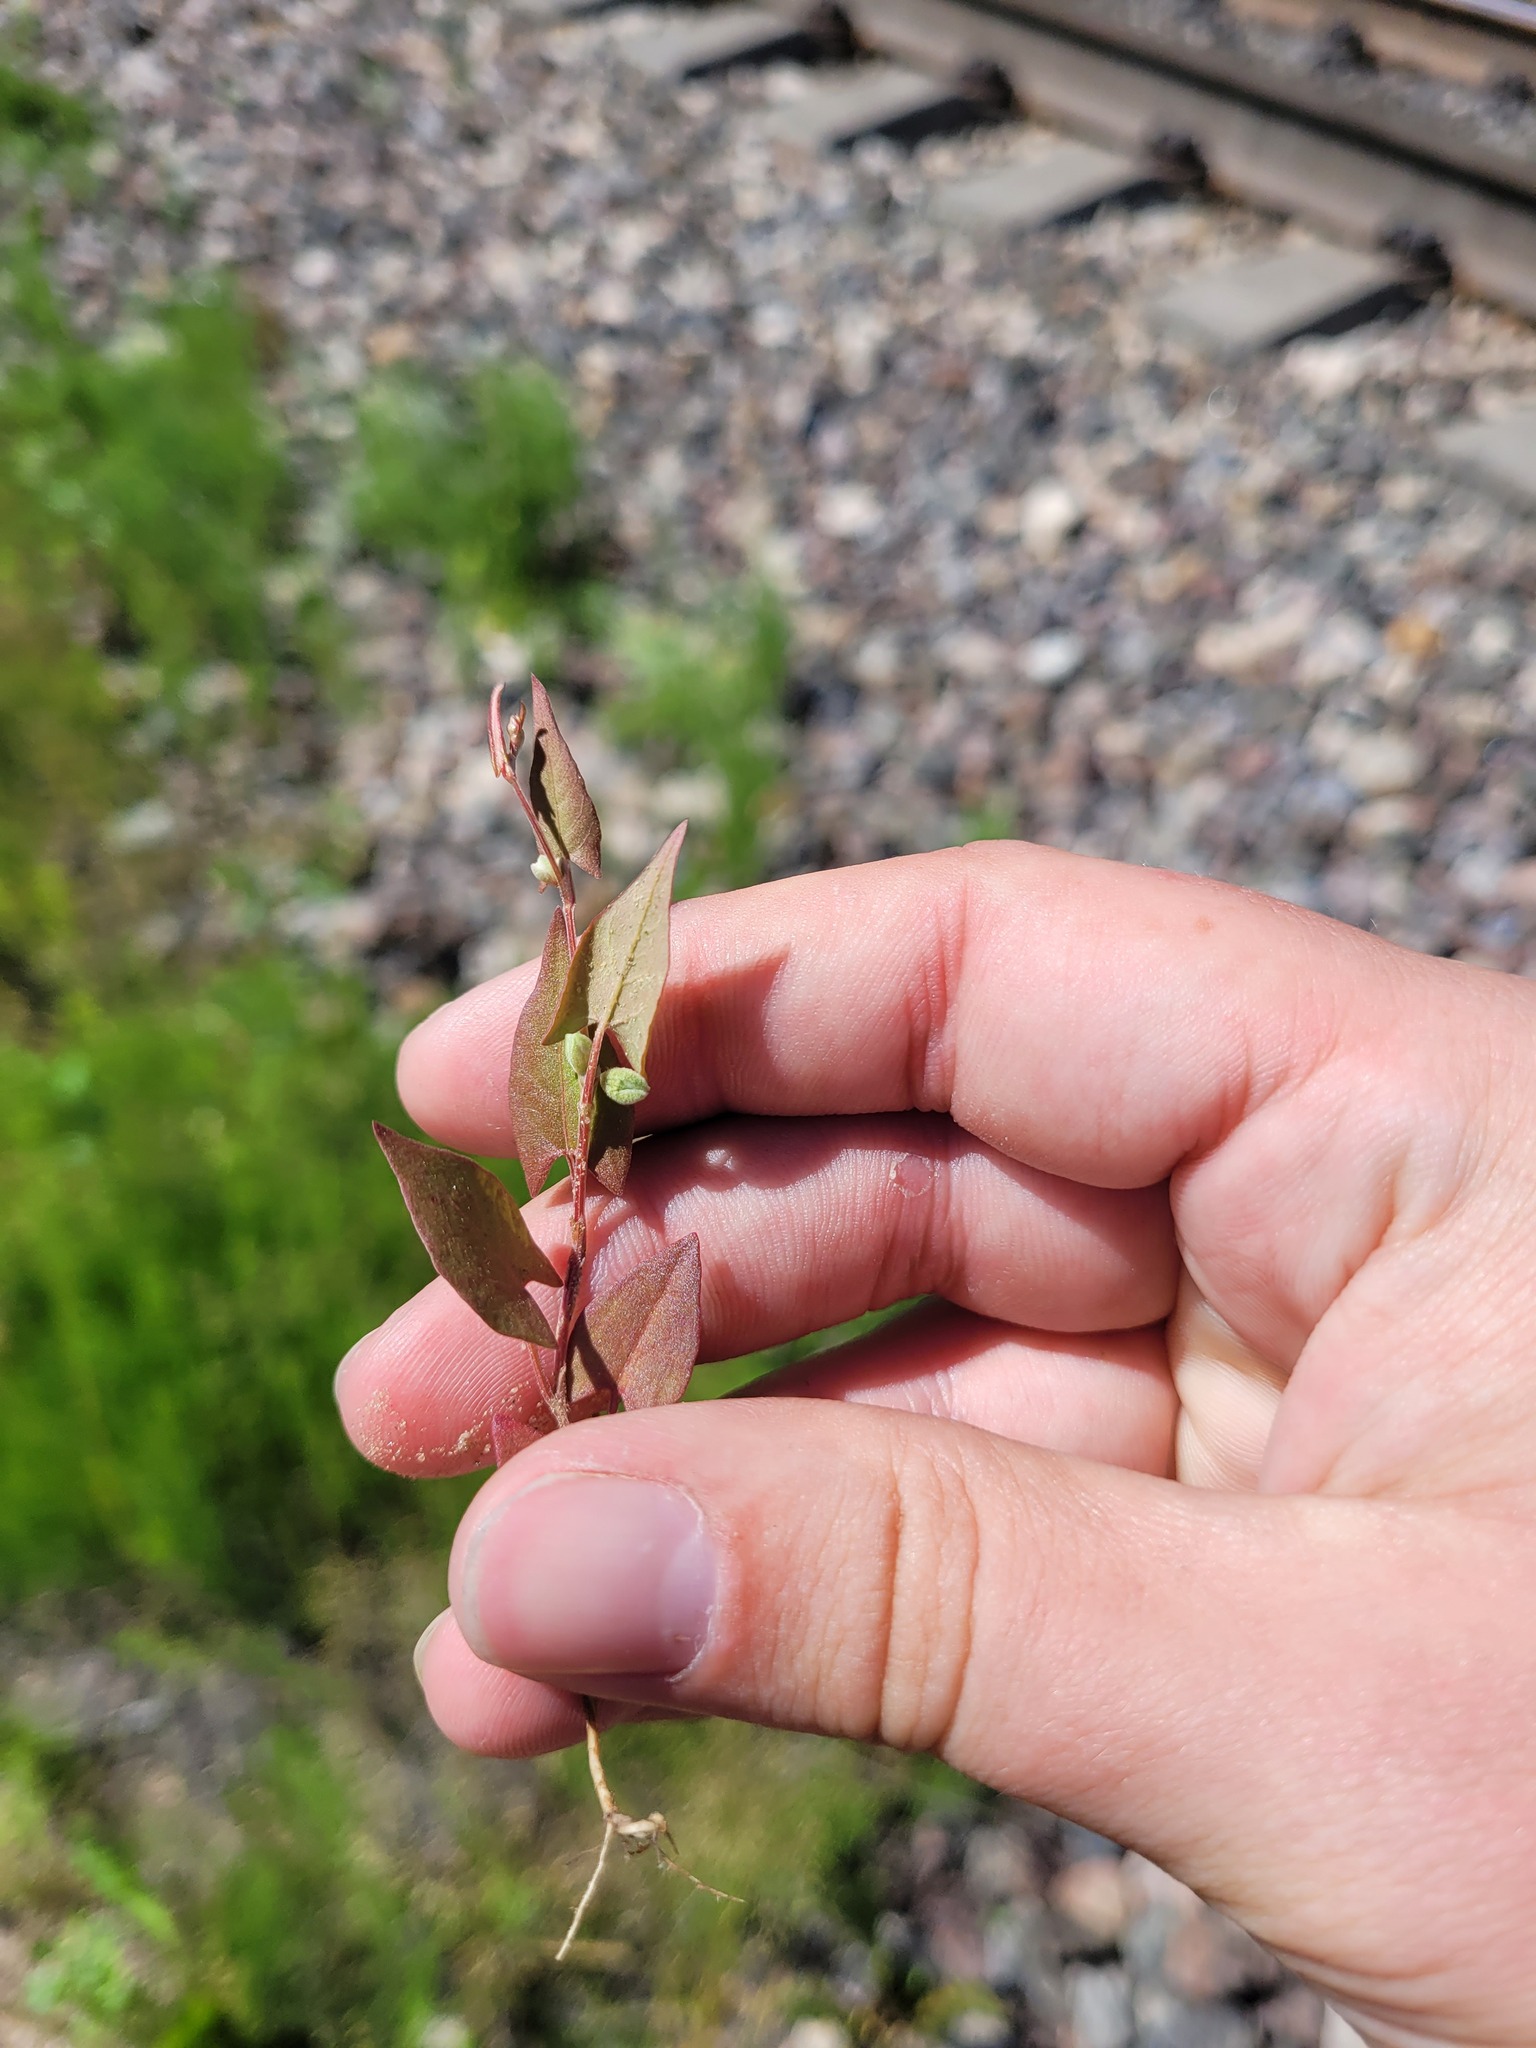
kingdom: Plantae
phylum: Tracheophyta
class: Magnoliopsida
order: Caryophyllales
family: Polygonaceae
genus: Fallopia
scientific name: Fallopia convolvulus
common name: Black bindweed
